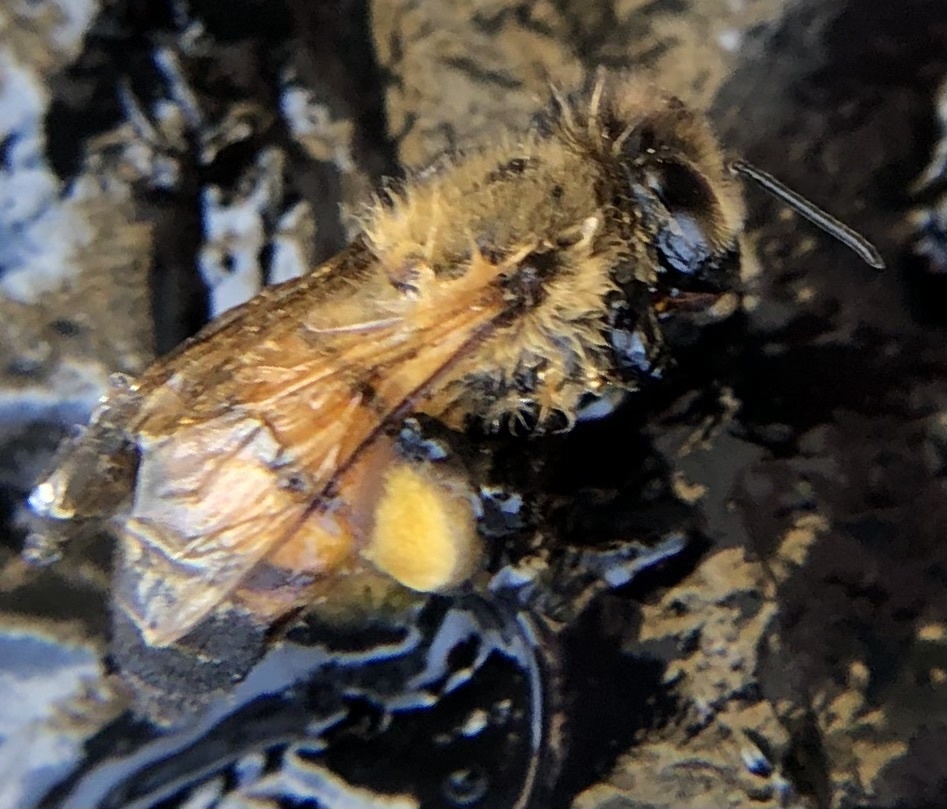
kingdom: Animalia
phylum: Arthropoda
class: Insecta
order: Hymenoptera
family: Apidae
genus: Apis
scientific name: Apis mellifera
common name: Honey bee
